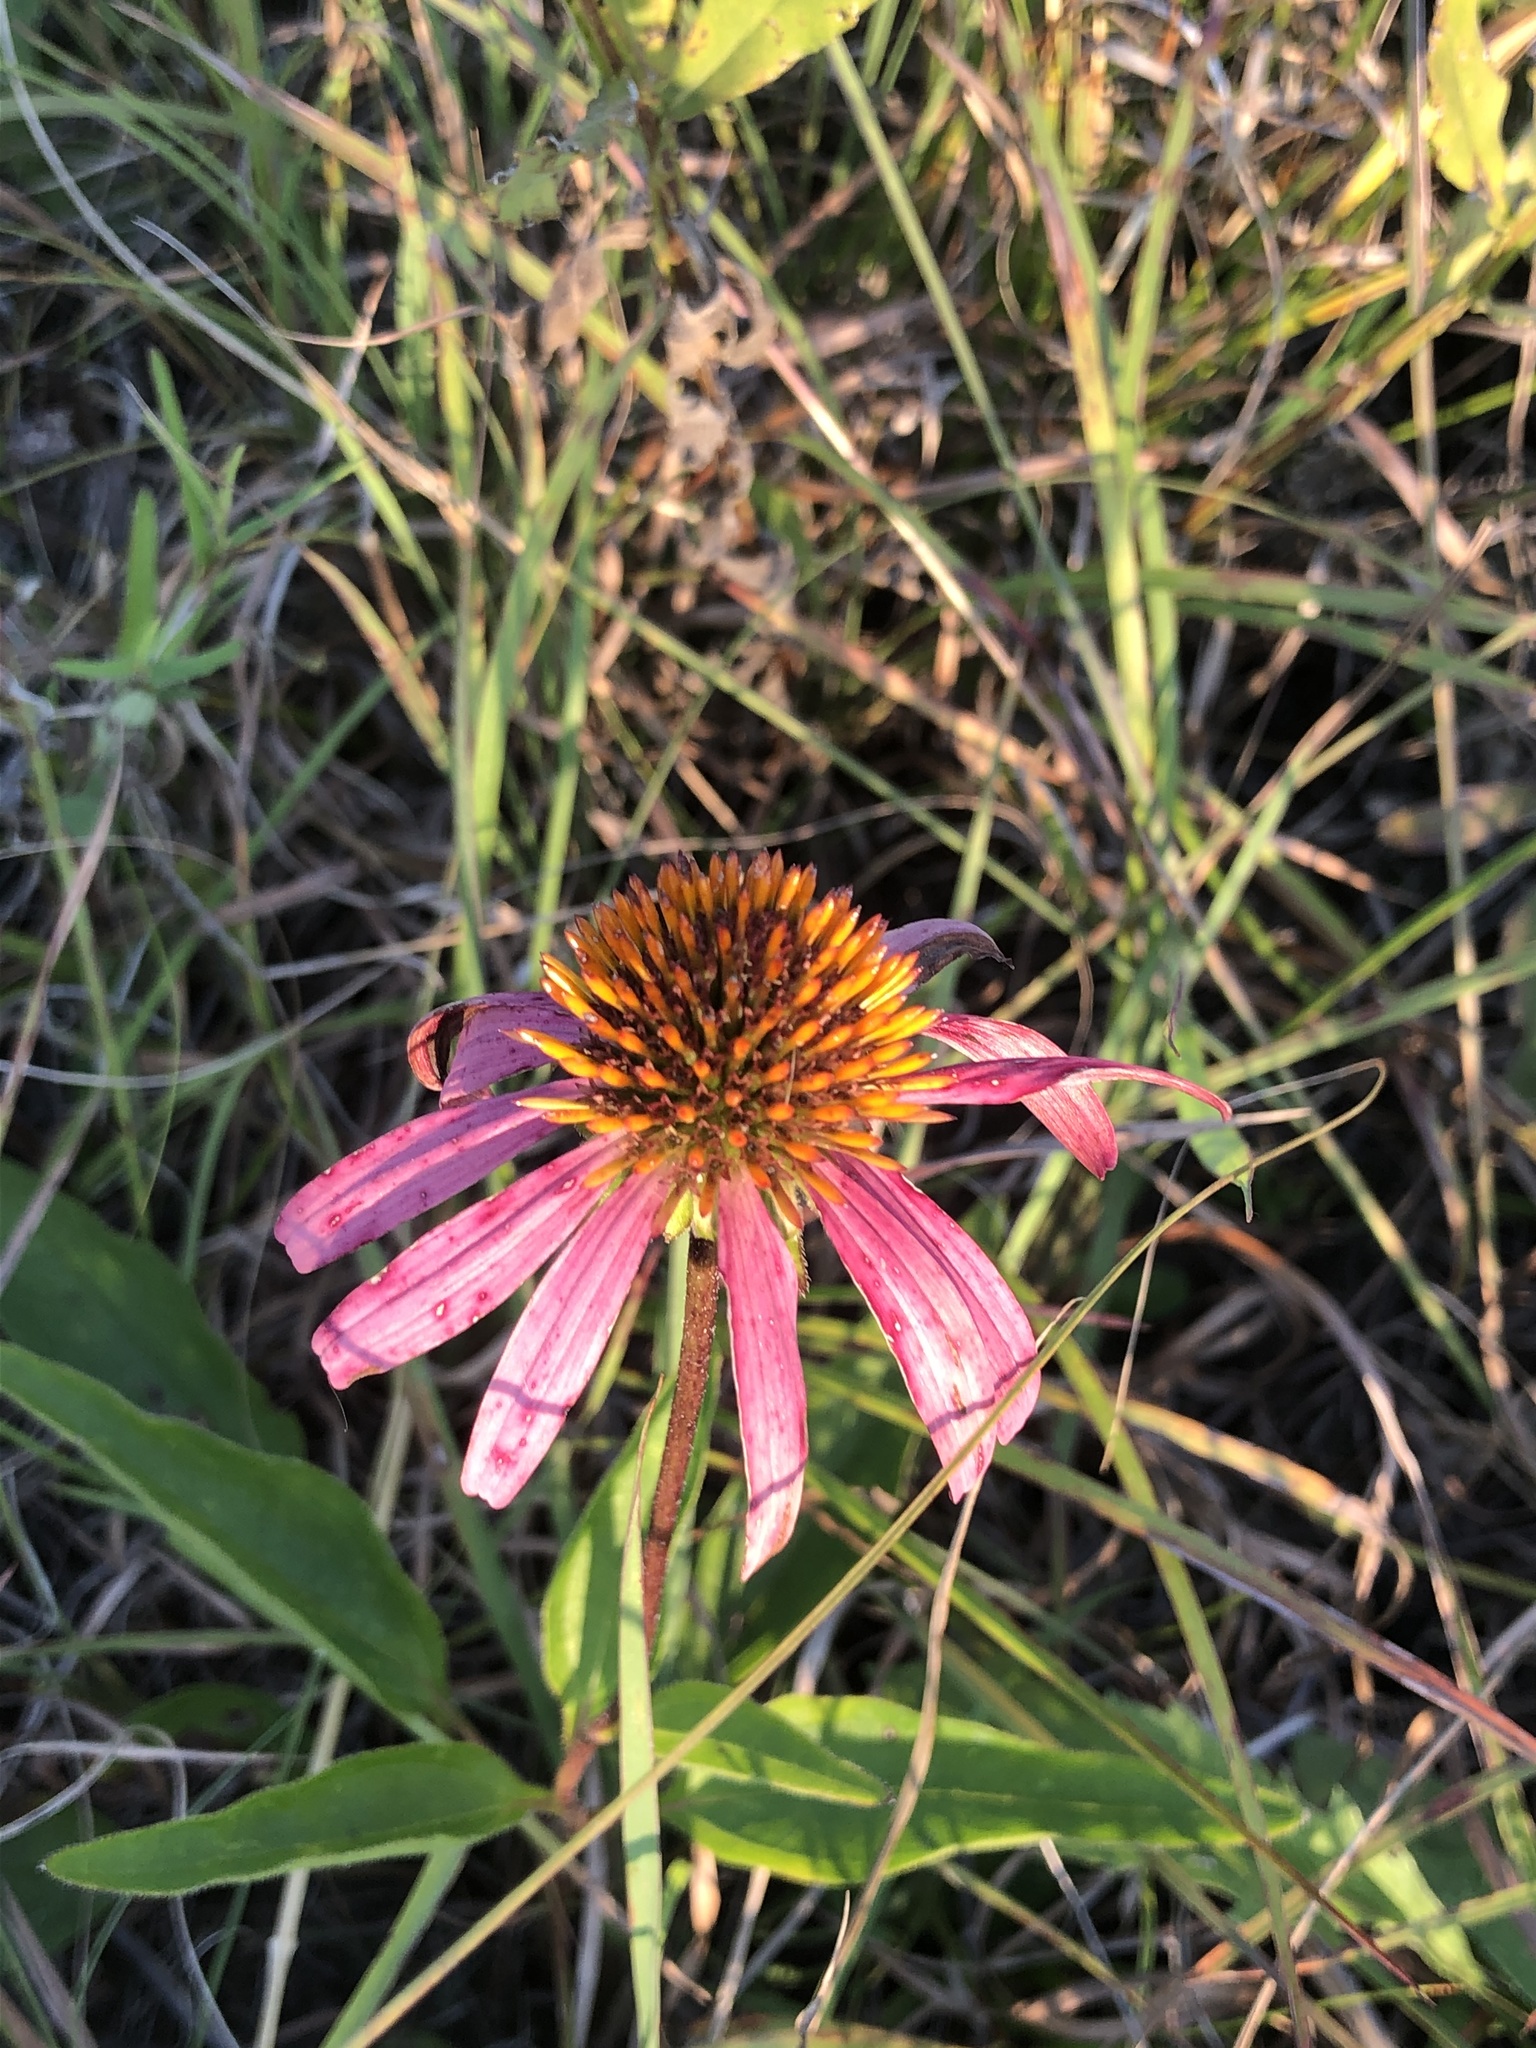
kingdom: Plantae
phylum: Tracheophyta
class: Magnoliopsida
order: Asterales
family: Asteraceae
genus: Echinacea
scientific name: Echinacea purpurea
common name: Broad-leaved purple coneflower
